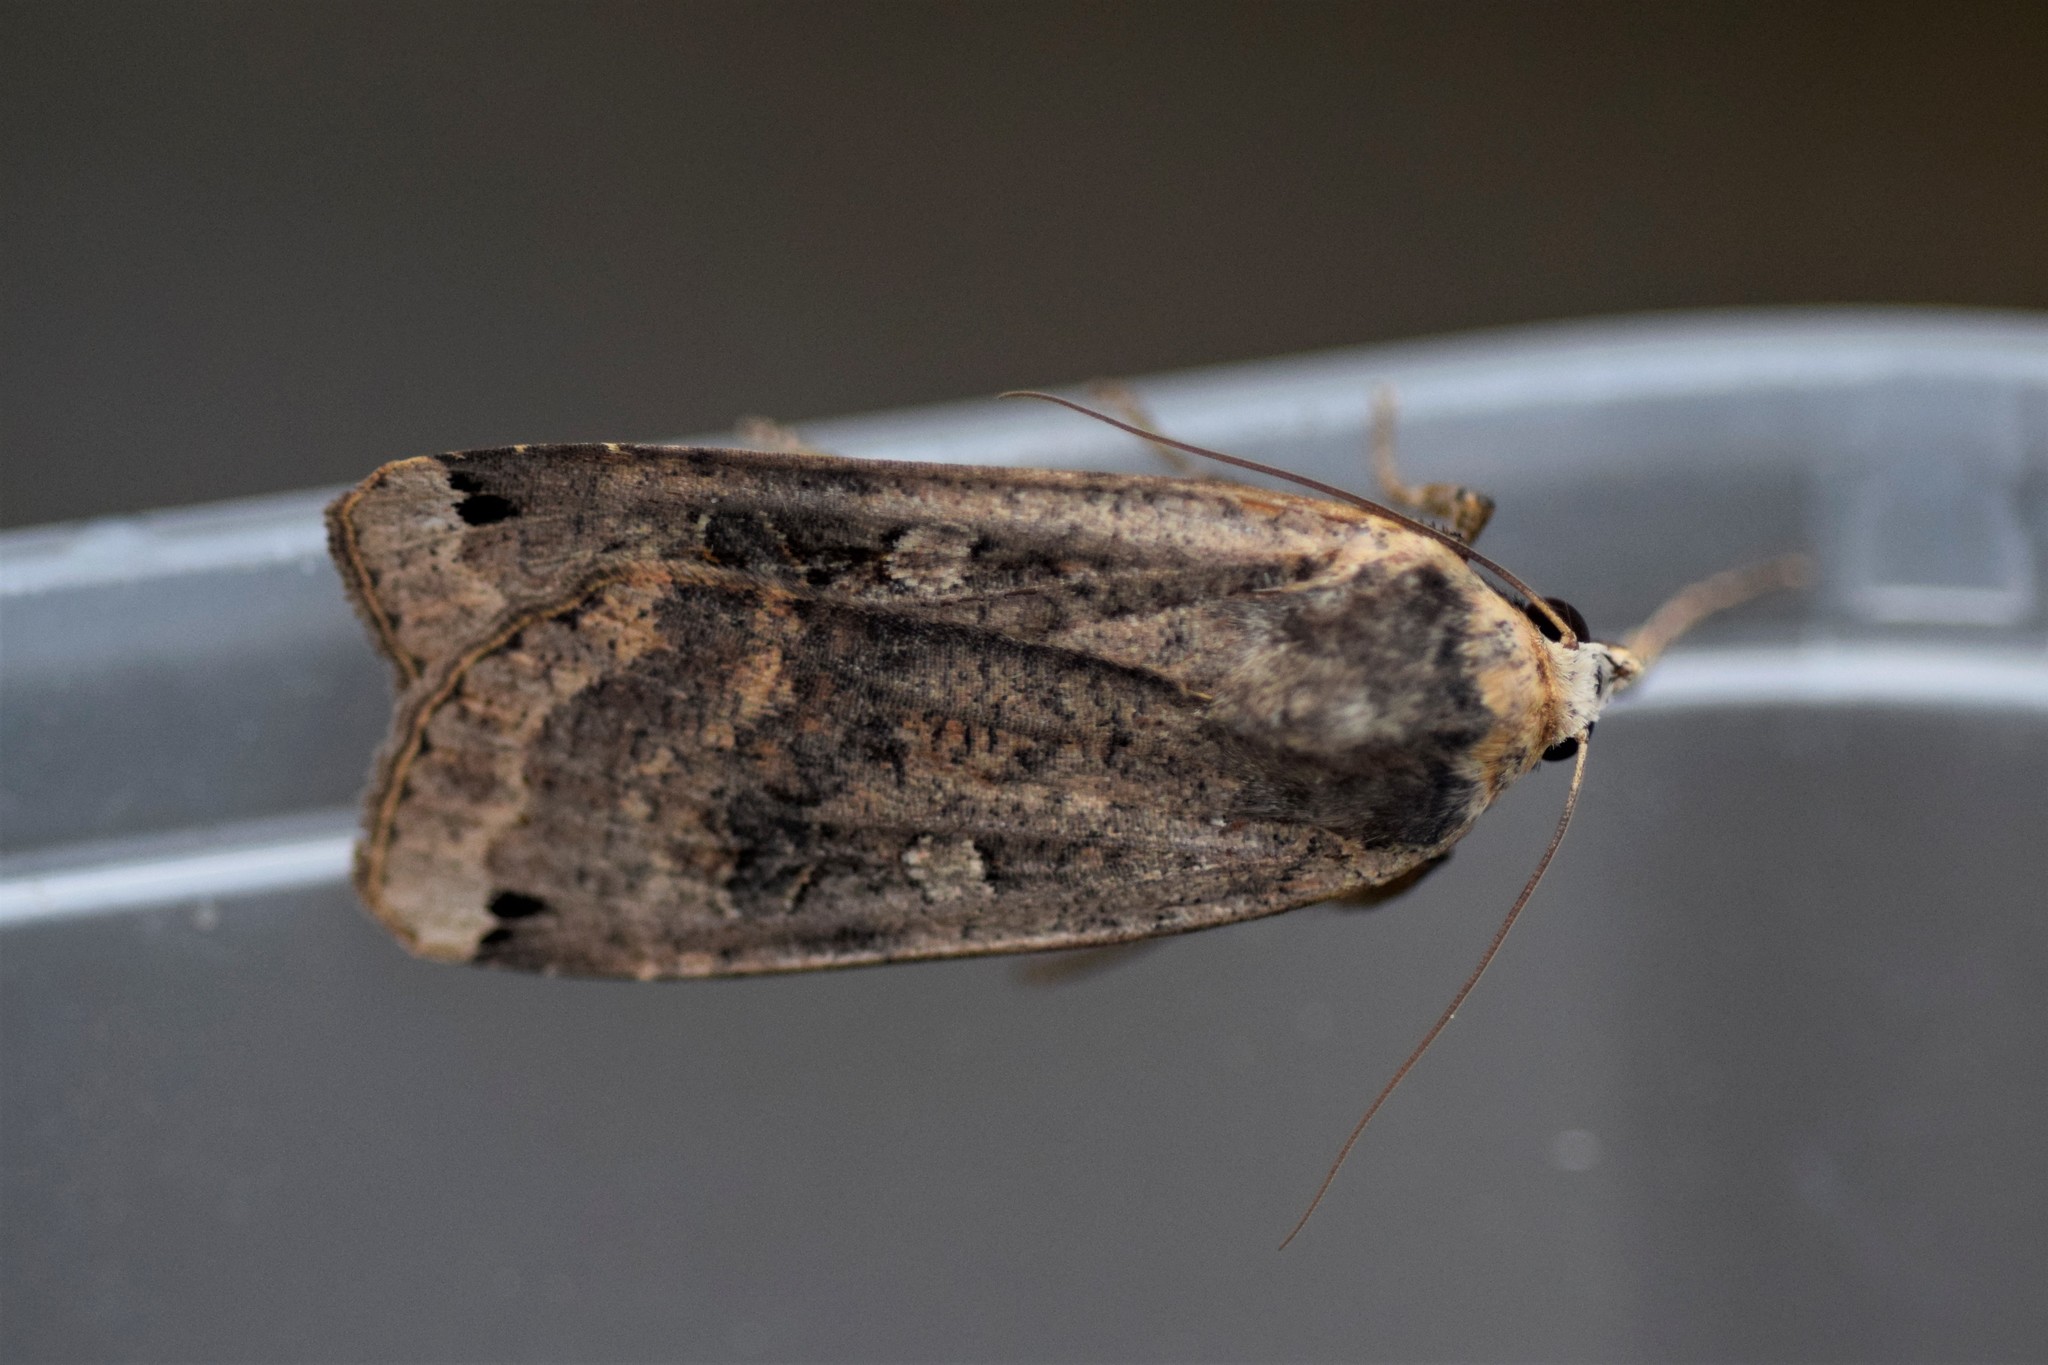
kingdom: Animalia
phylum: Arthropoda
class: Insecta
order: Lepidoptera
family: Noctuidae
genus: Noctua
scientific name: Noctua pronuba
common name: Large yellow underwing
